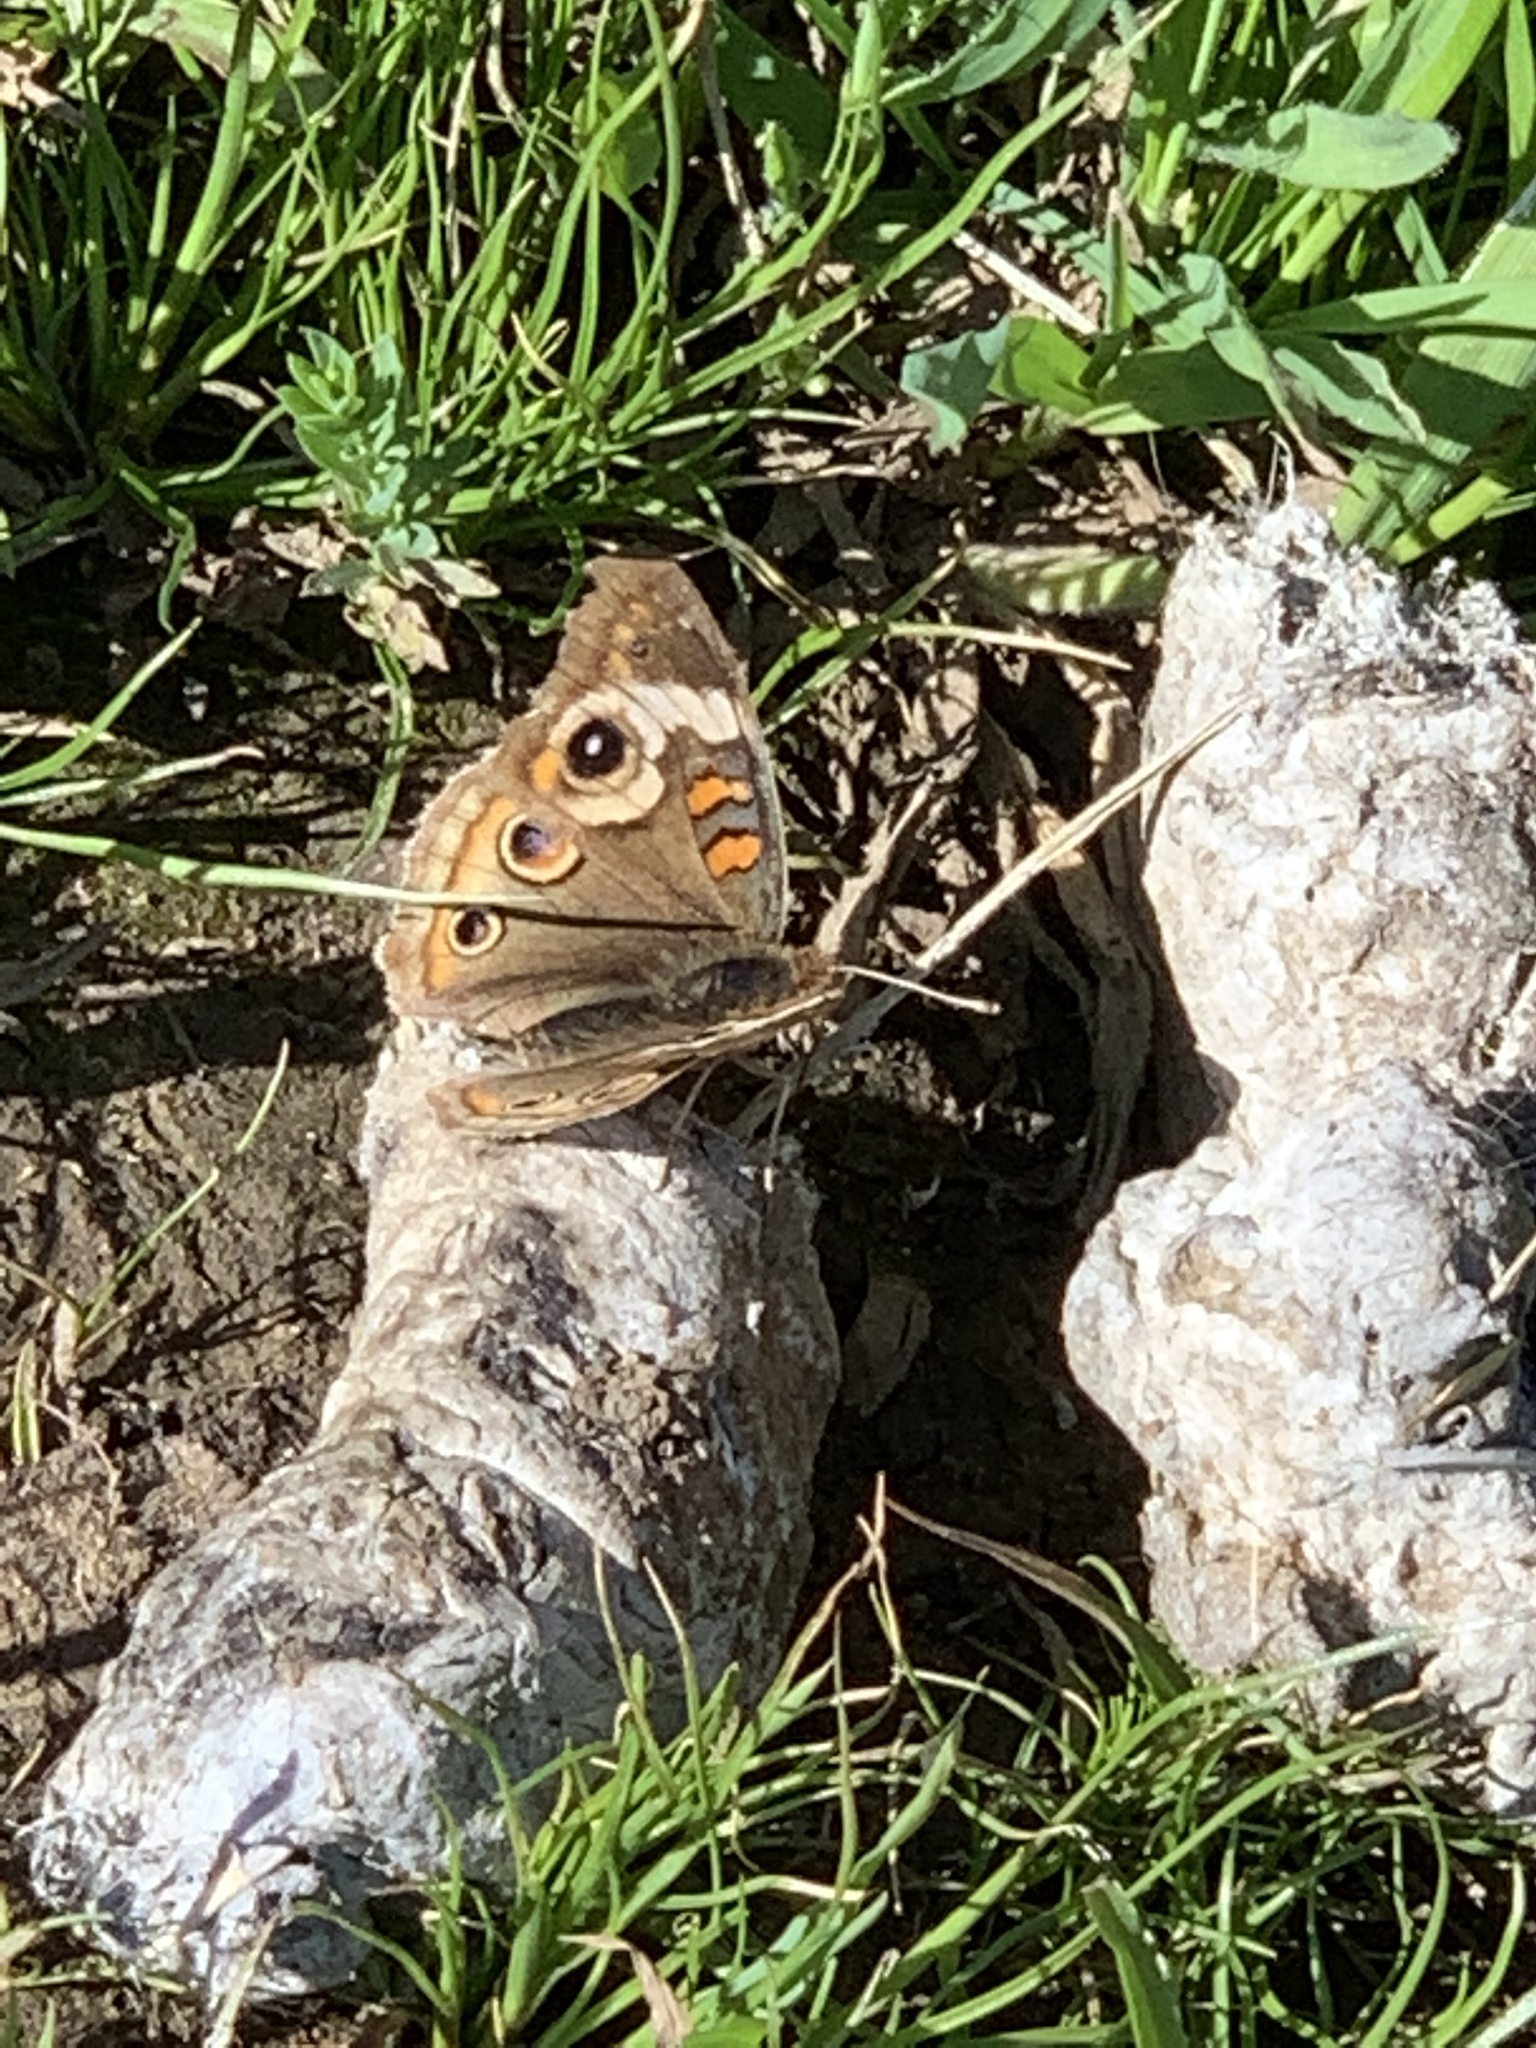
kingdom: Animalia
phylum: Arthropoda
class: Insecta
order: Lepidoptera
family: Nymphalidae
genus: Junonia
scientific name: Junonia grisea
